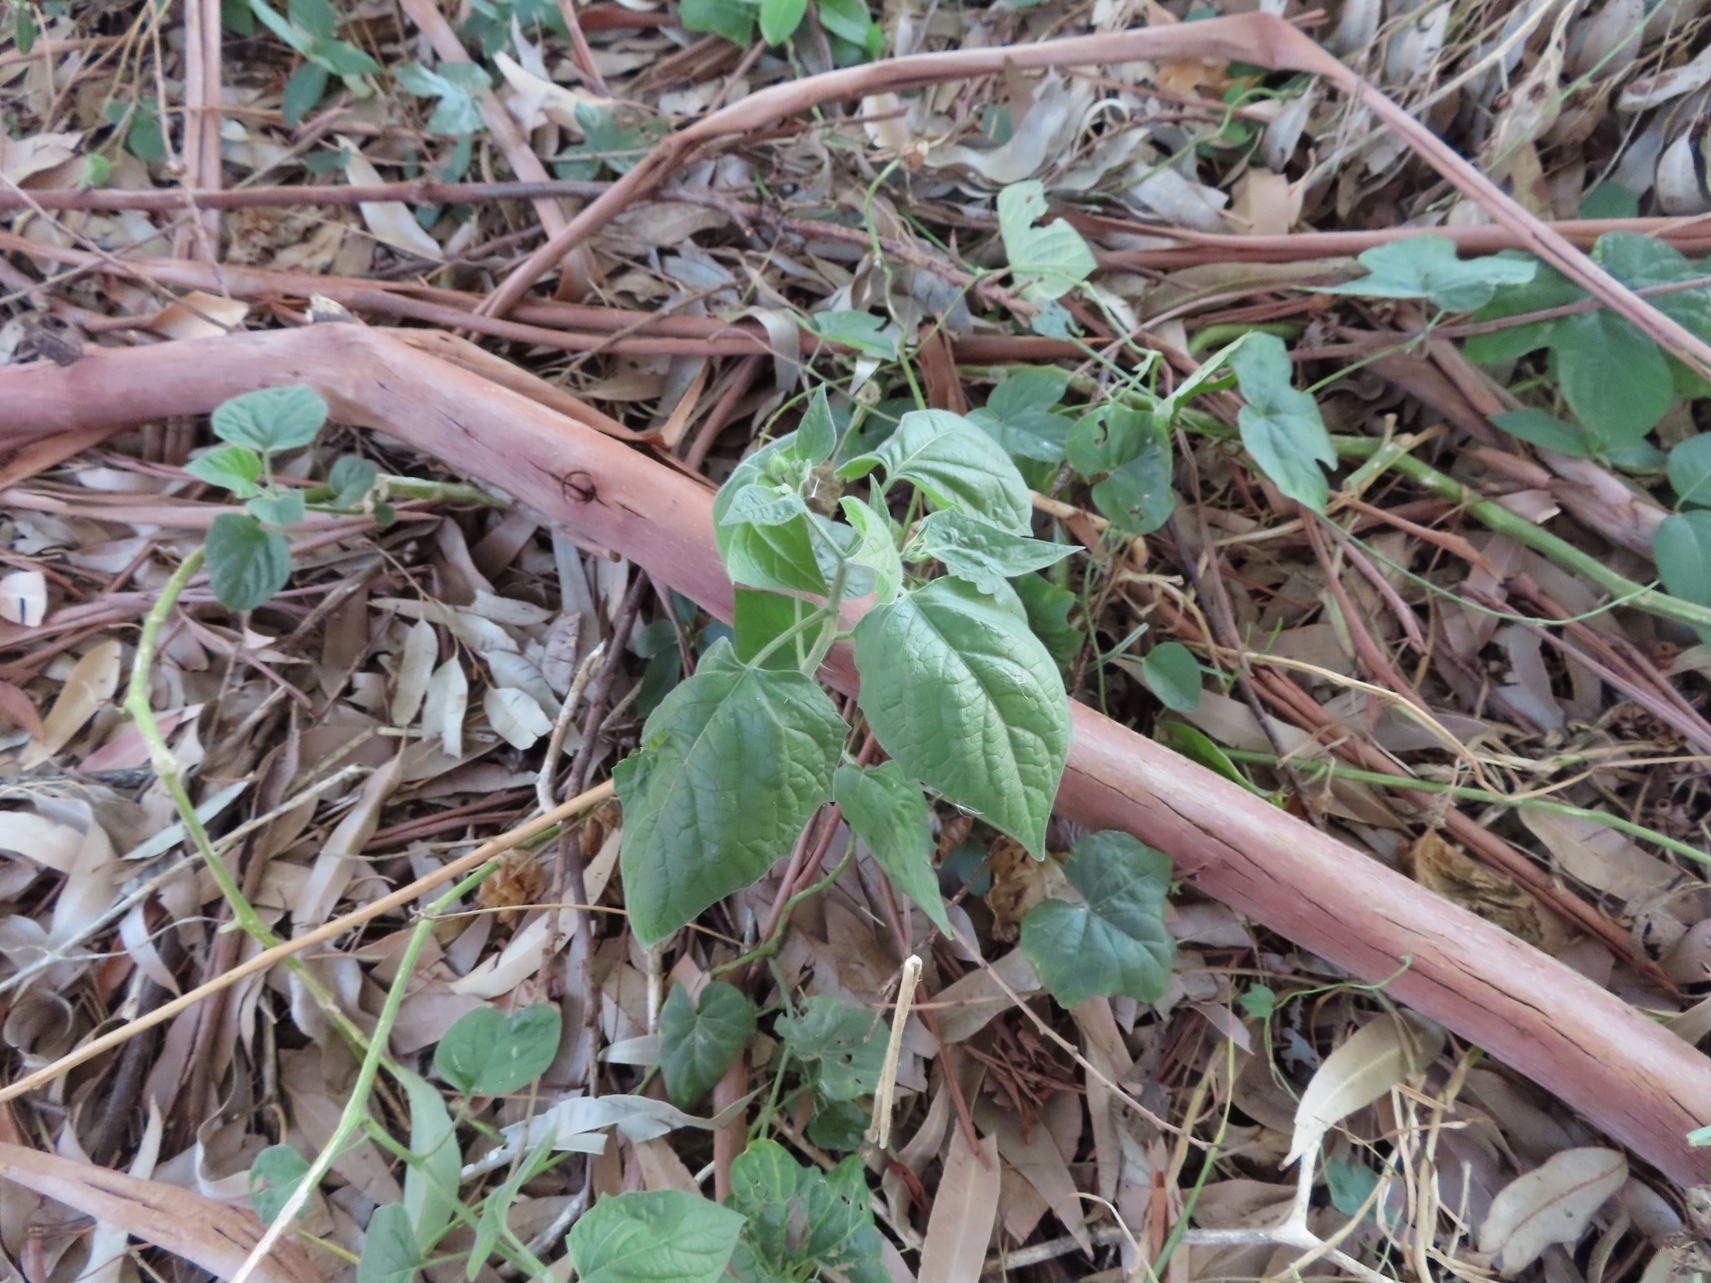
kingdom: Plantae
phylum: Tracheophyta
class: Magnoliopsida
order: Solanales
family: Solanaceae
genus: Physalis
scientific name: Physalis peruviana
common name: Cape-gooseberry
